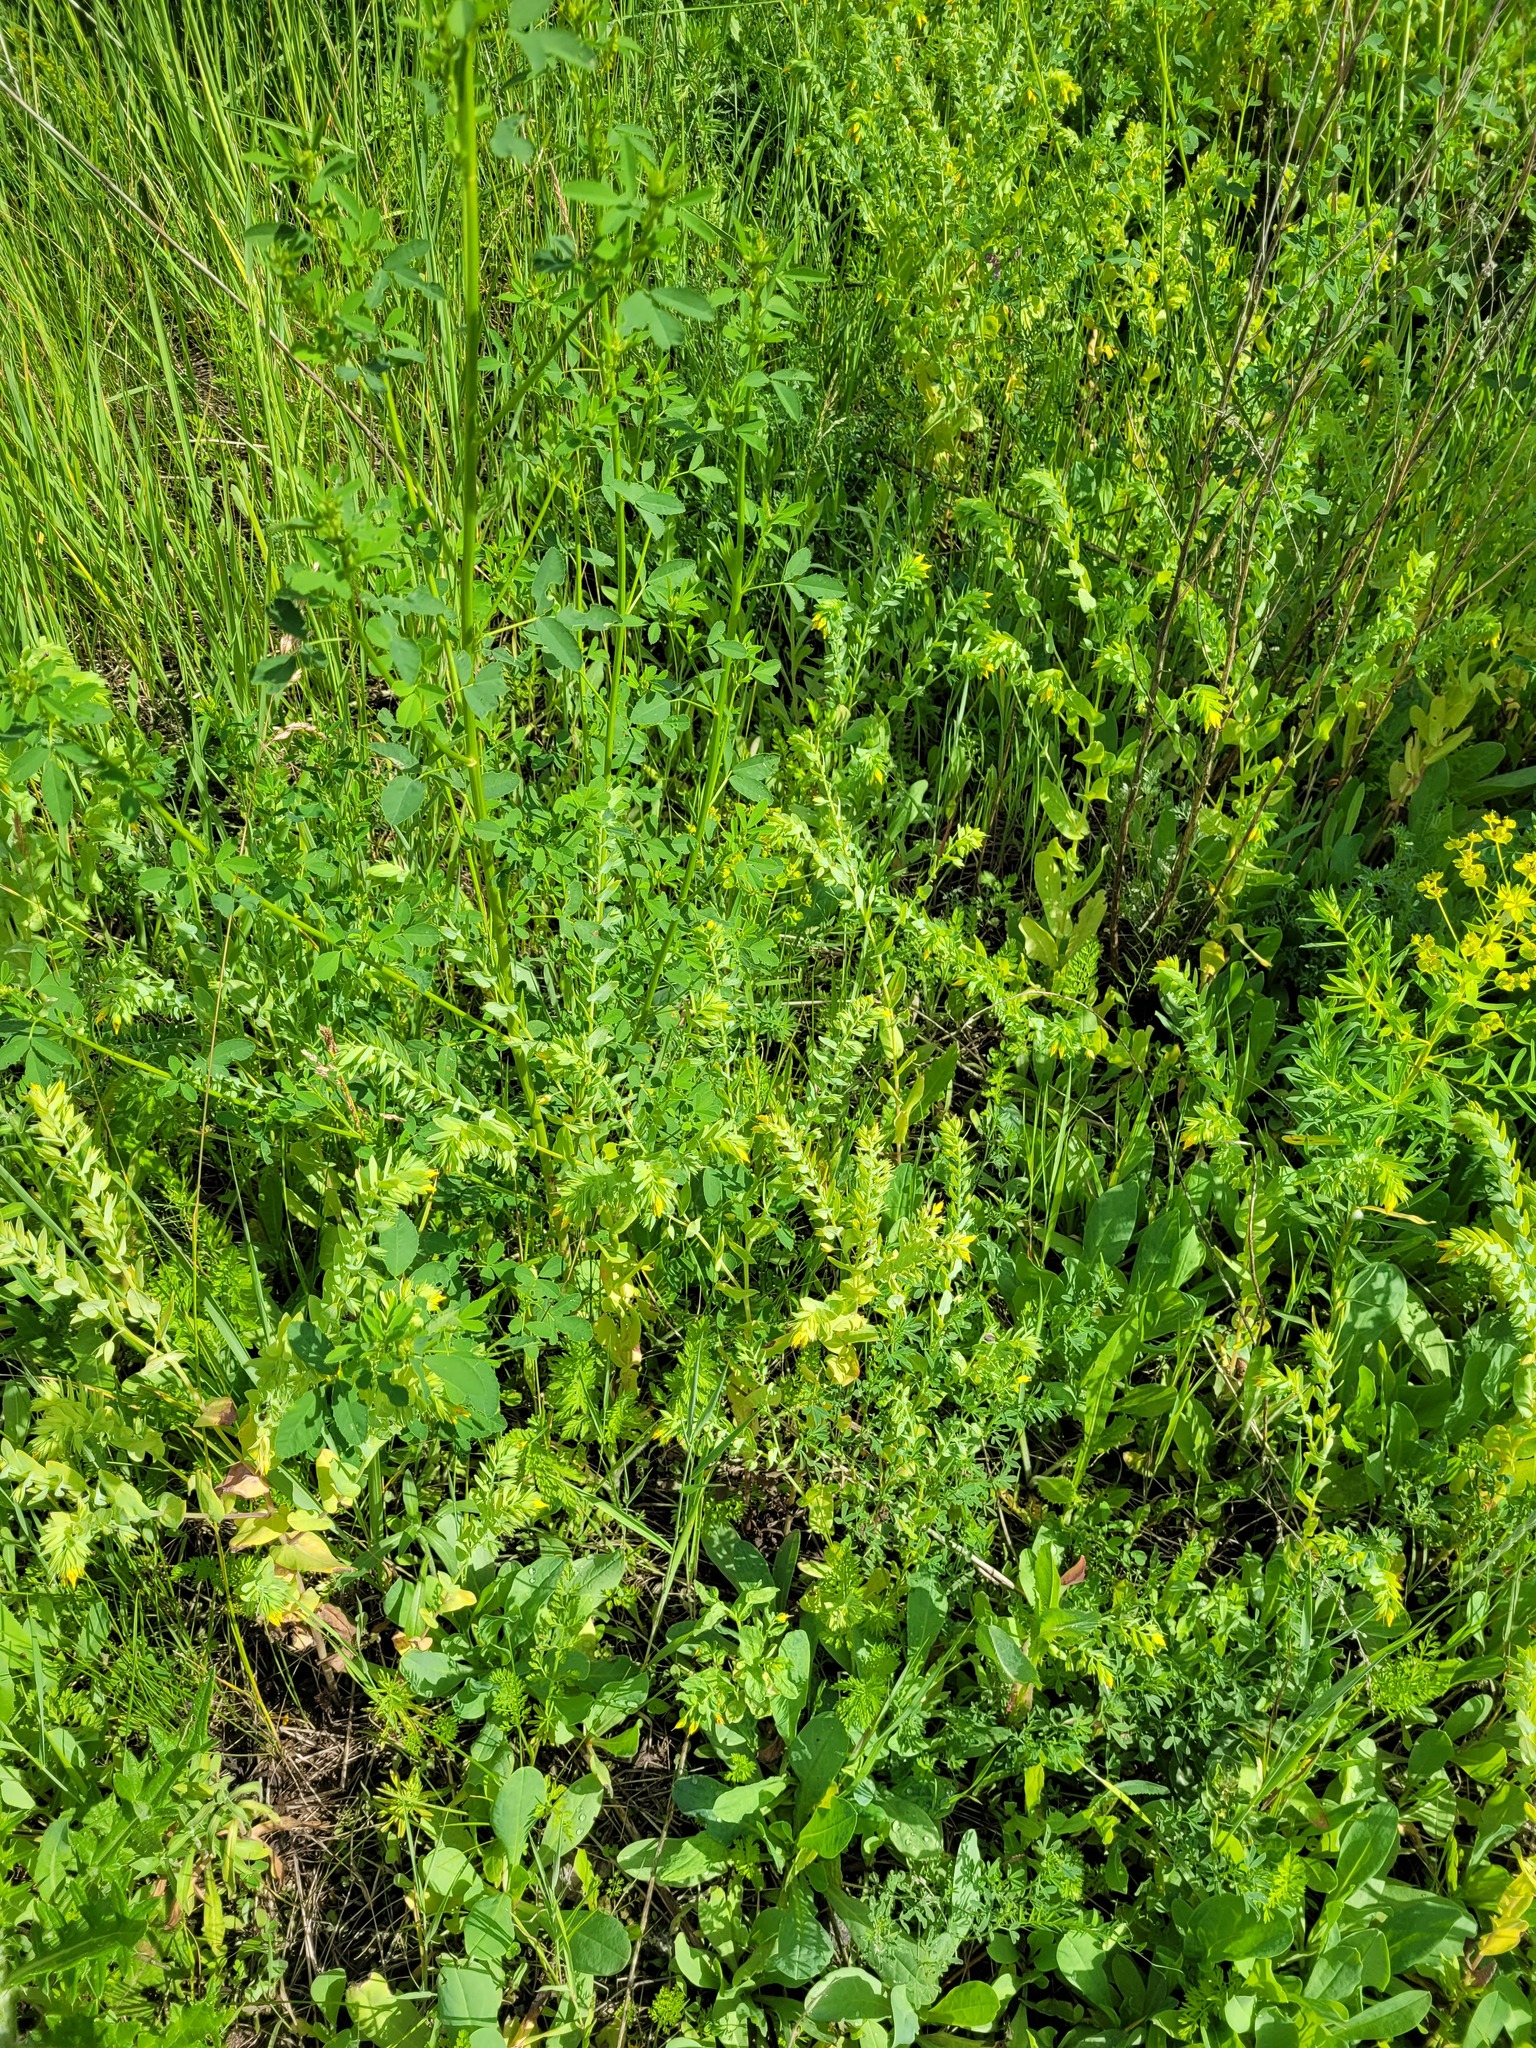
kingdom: Plantae
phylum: Tracheophyta
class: Magnoliopsida
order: Boraginales
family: Boraginaceae
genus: Cerinthe
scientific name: Cerinthe minor
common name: Lesser honeywort
